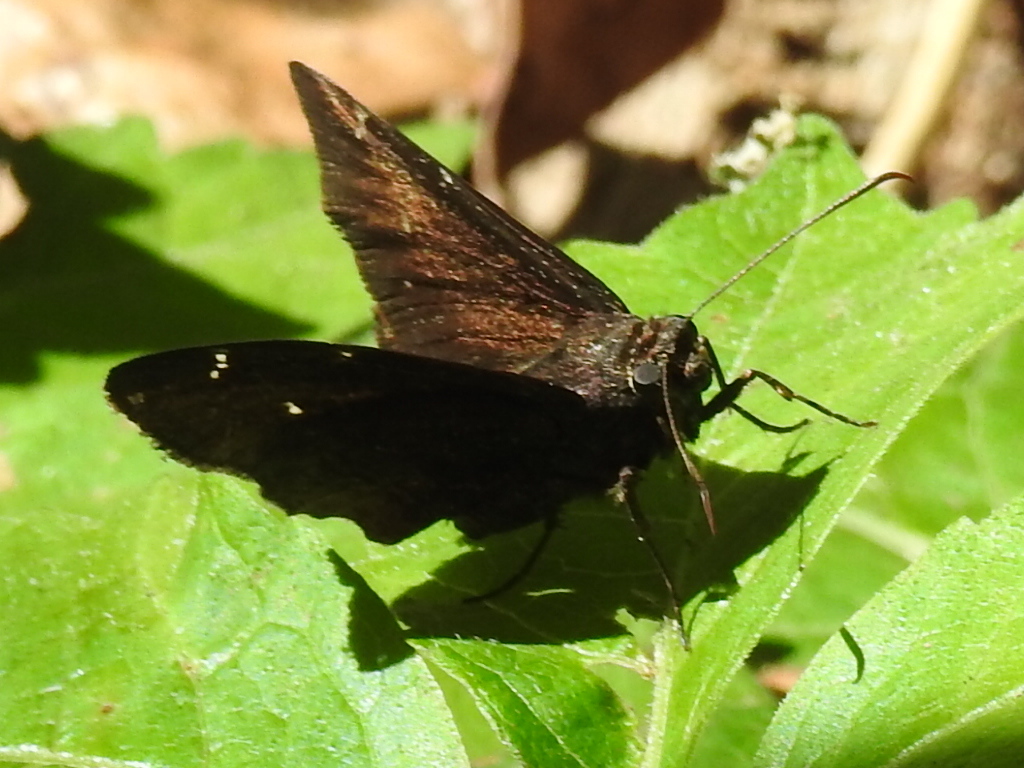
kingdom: Animalia
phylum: Arthropoda
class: Insecta
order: Lepidoptera
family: Hesperiidae
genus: Thorybes
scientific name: Thorybes pylades
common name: Northern cloudywing
